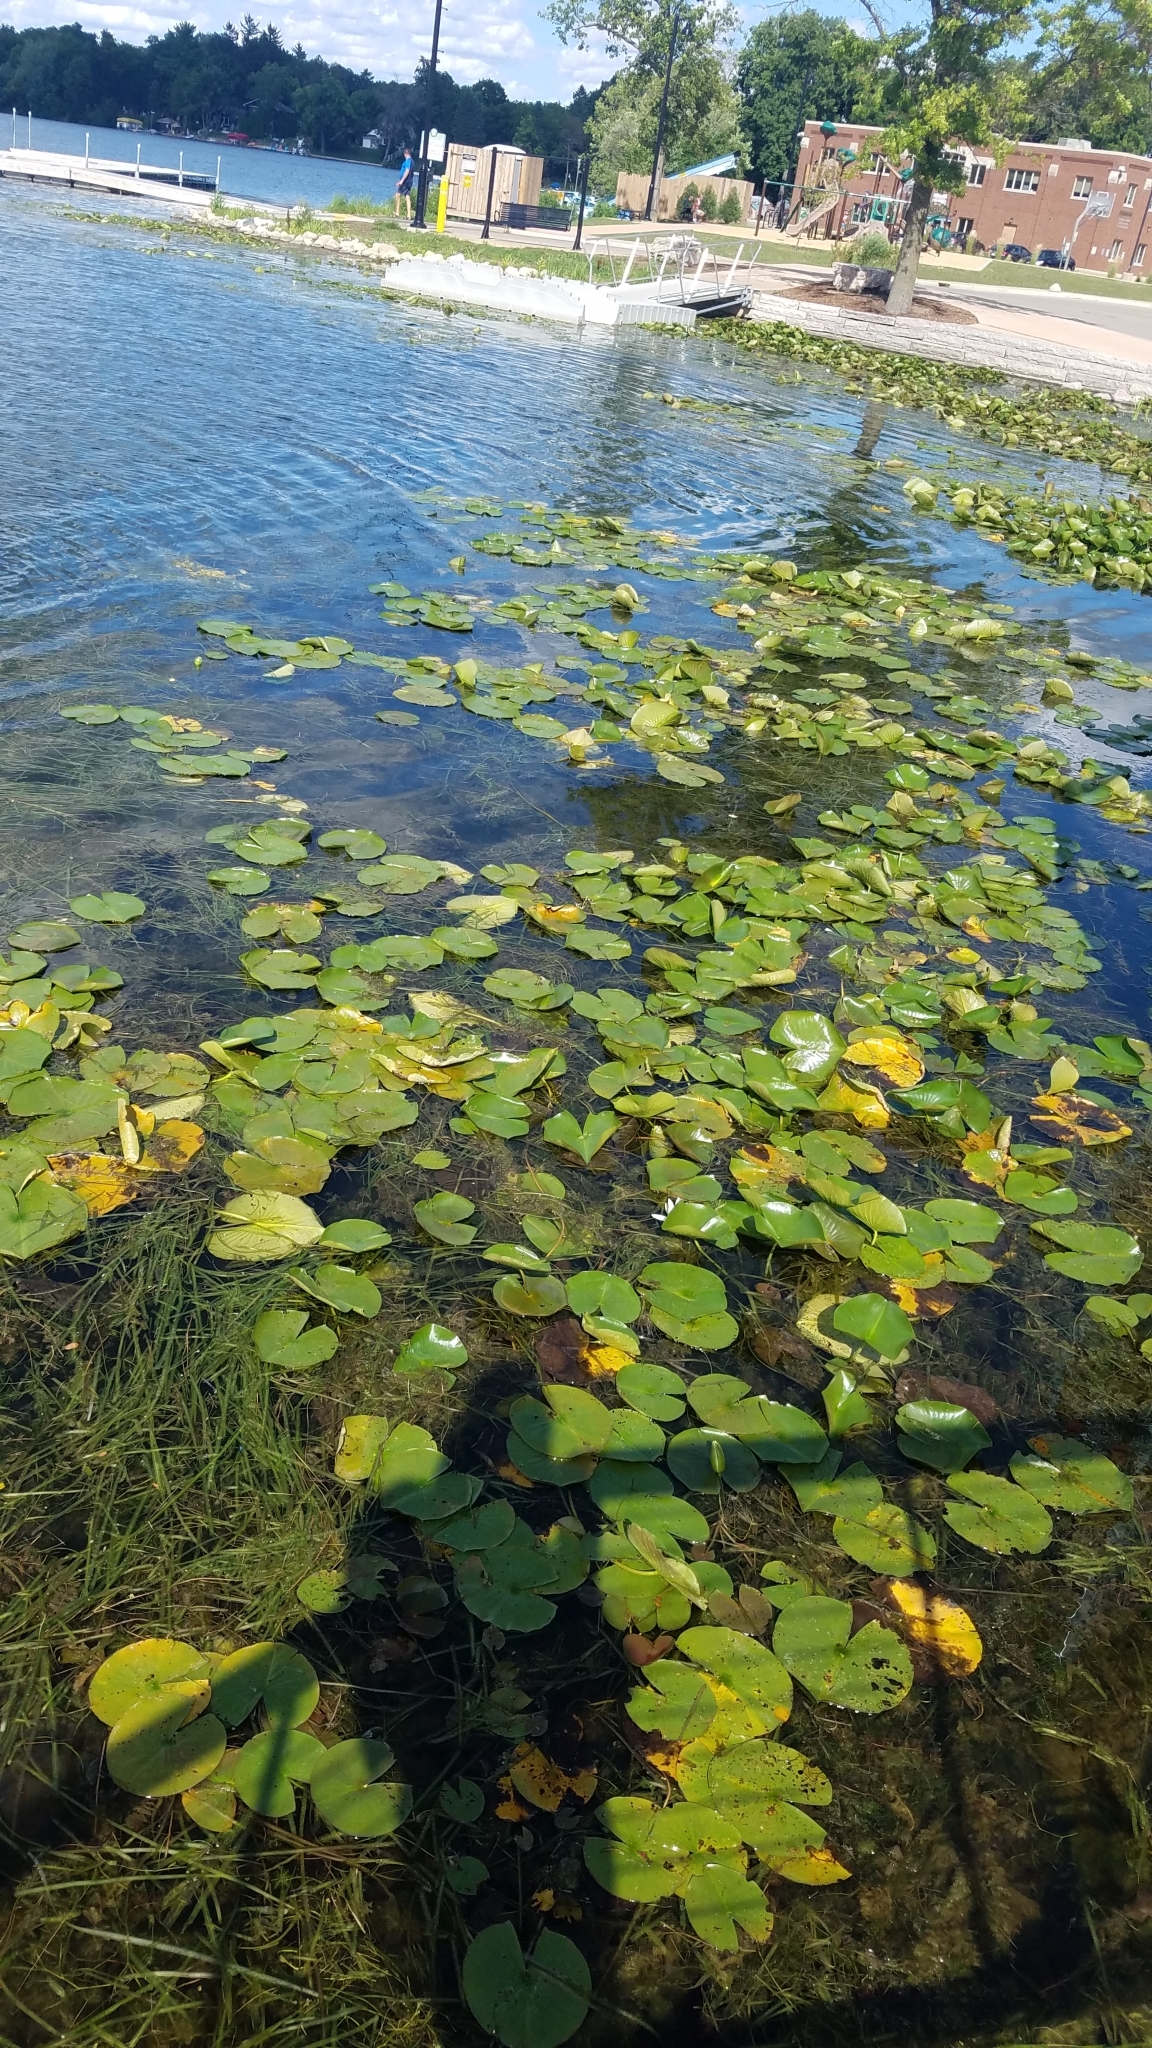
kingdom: Plantae
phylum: Tracheophyta
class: Magnoliopsida
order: Nymphaeales
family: Nymphaeaceae
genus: Nymphaea
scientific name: Nymphaea odorata
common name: Fragrant water-lily
